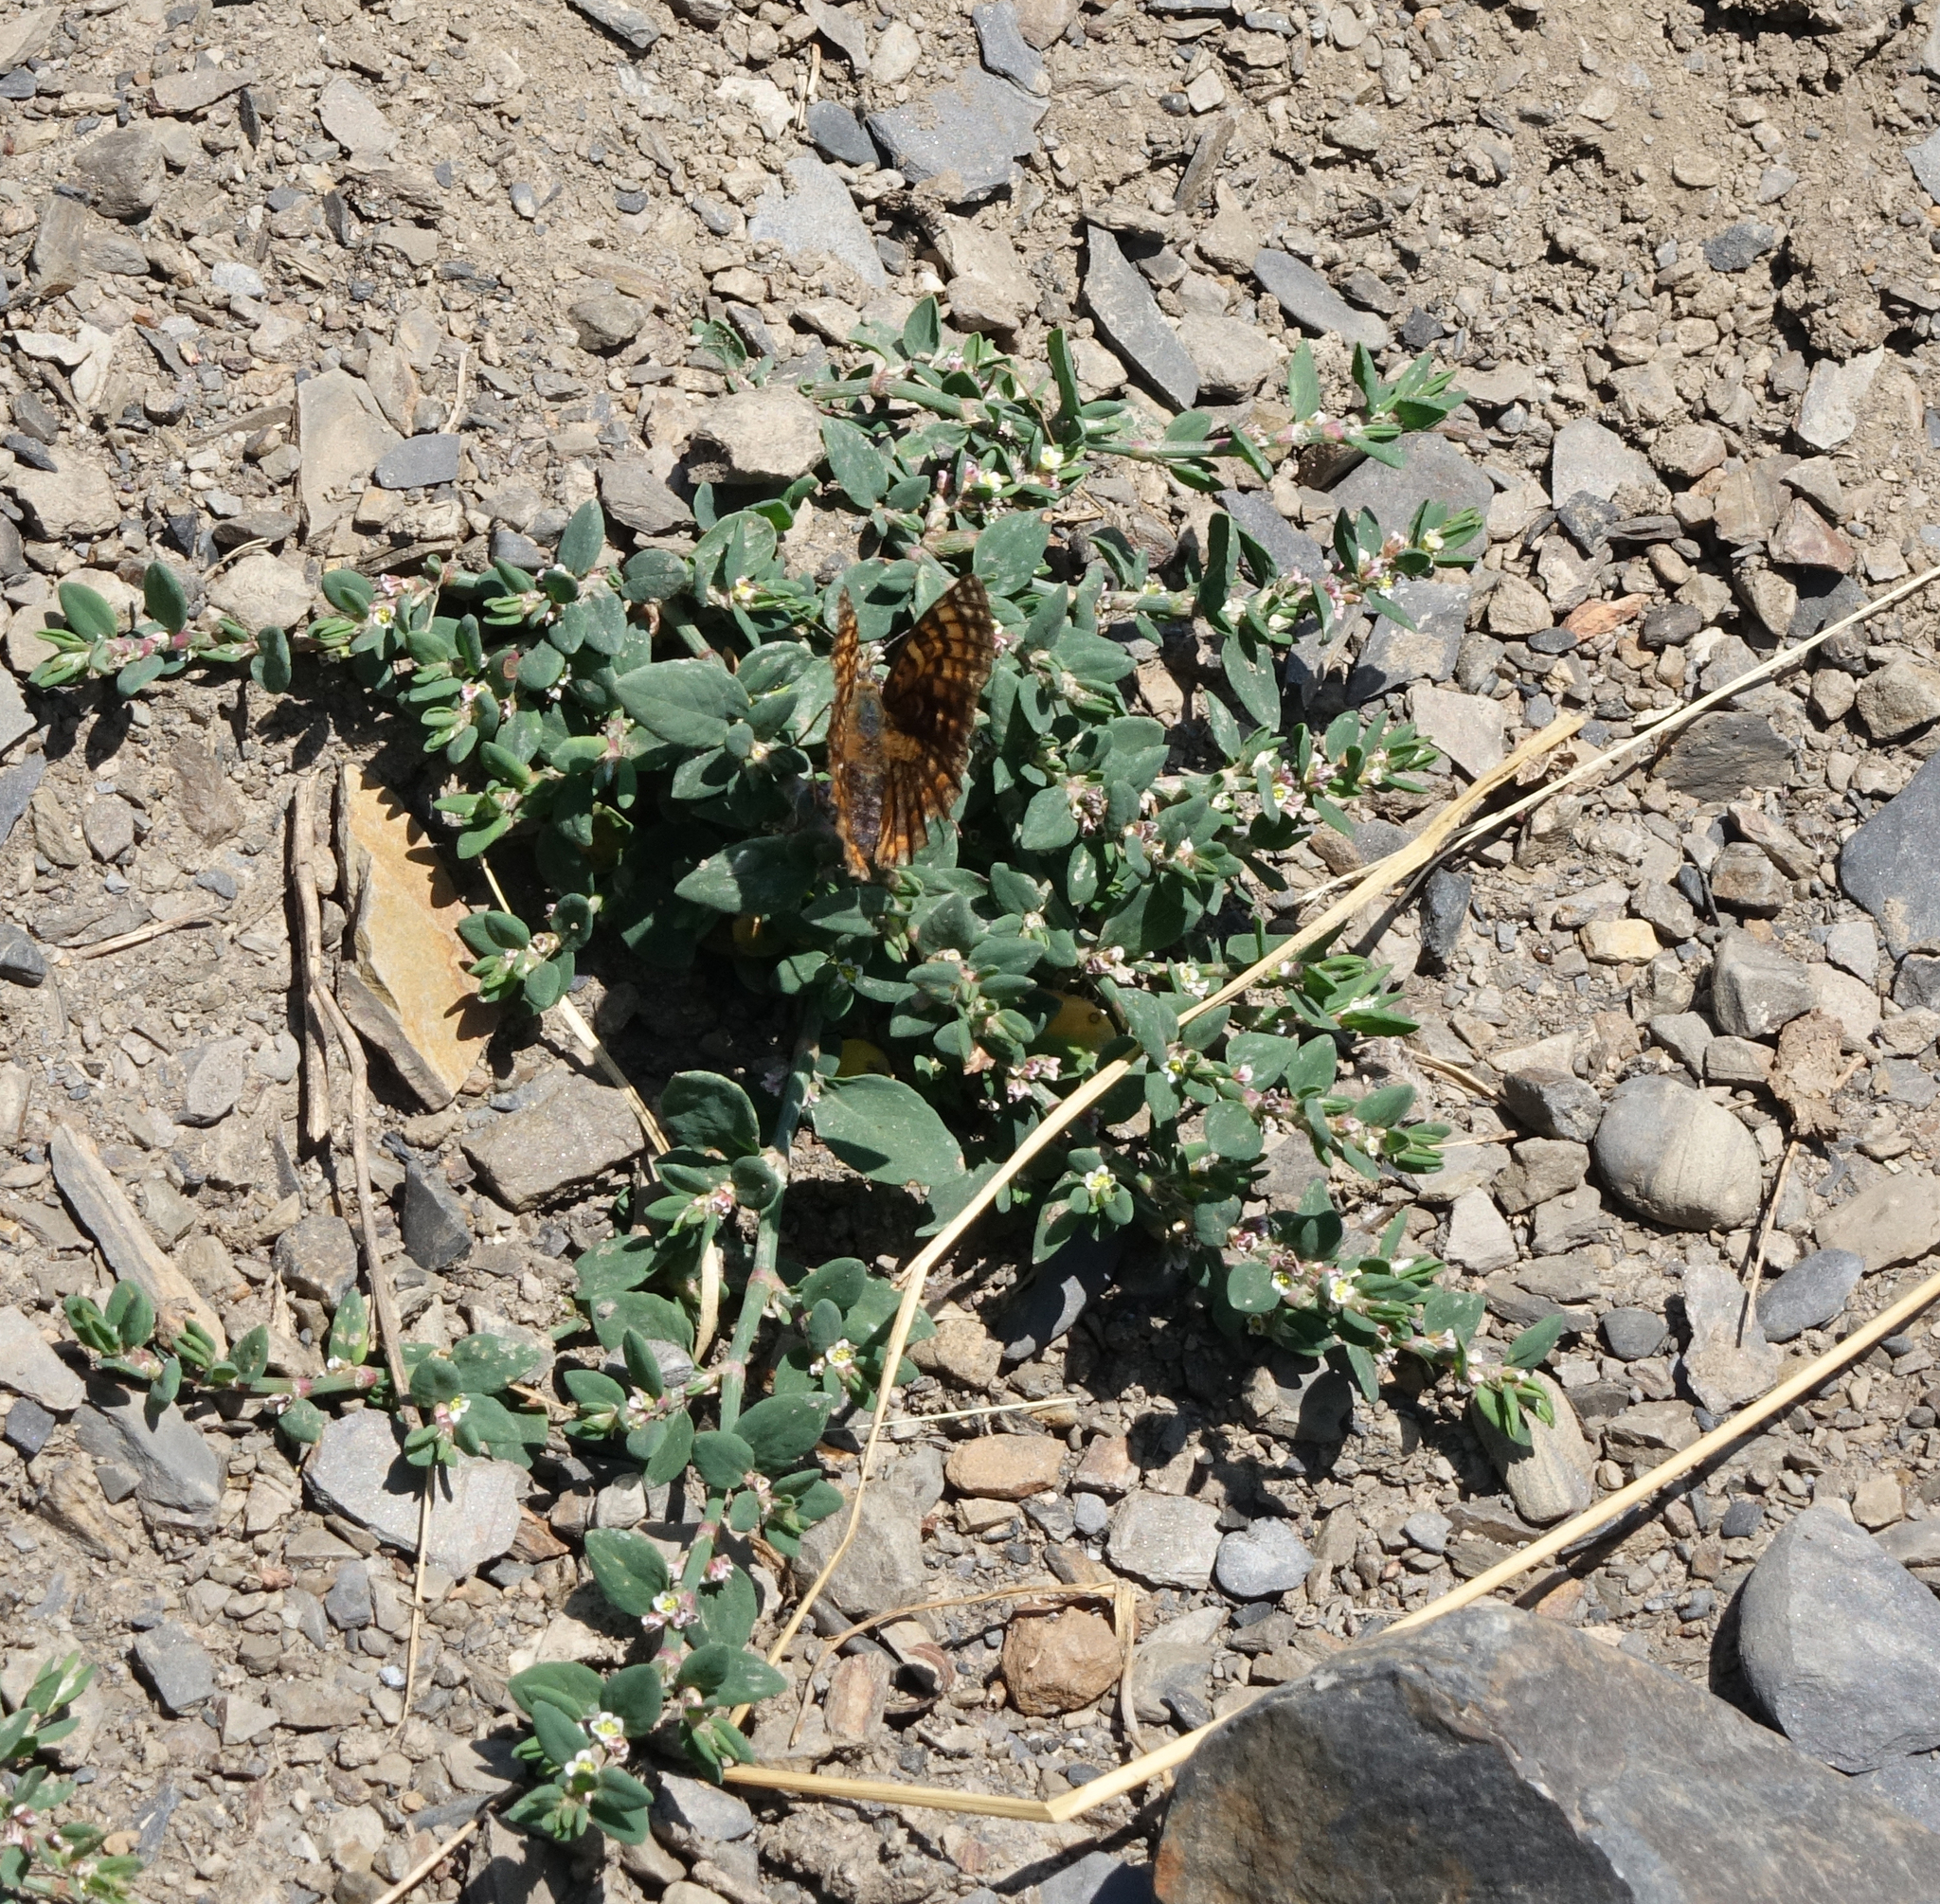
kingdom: Animalia
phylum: Arthropoda
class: Insecta
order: Lepidoptera
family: Nymphalidae
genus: Melitaea
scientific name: Melitaea phoebe
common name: Knapweed fritillary
